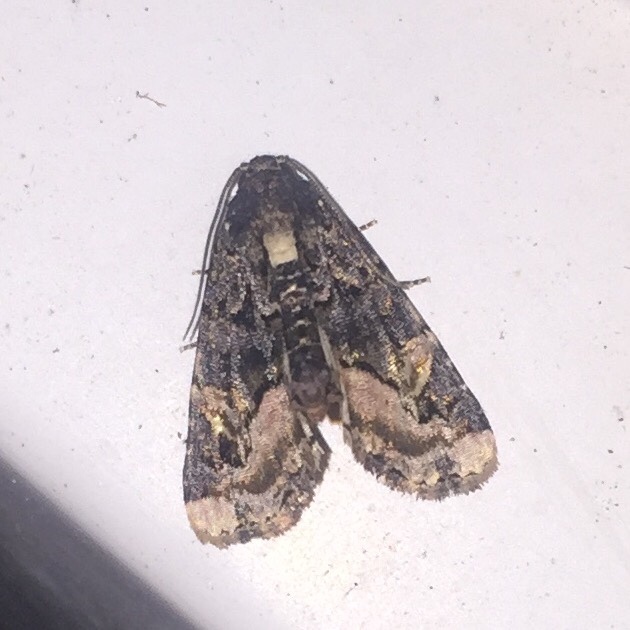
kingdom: Animalia
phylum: Arthropoda
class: Insecta
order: Lepidoptera
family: Noctuidae
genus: Homophoberia
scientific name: Homophoberia apicosa
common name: Black wedge-spot
